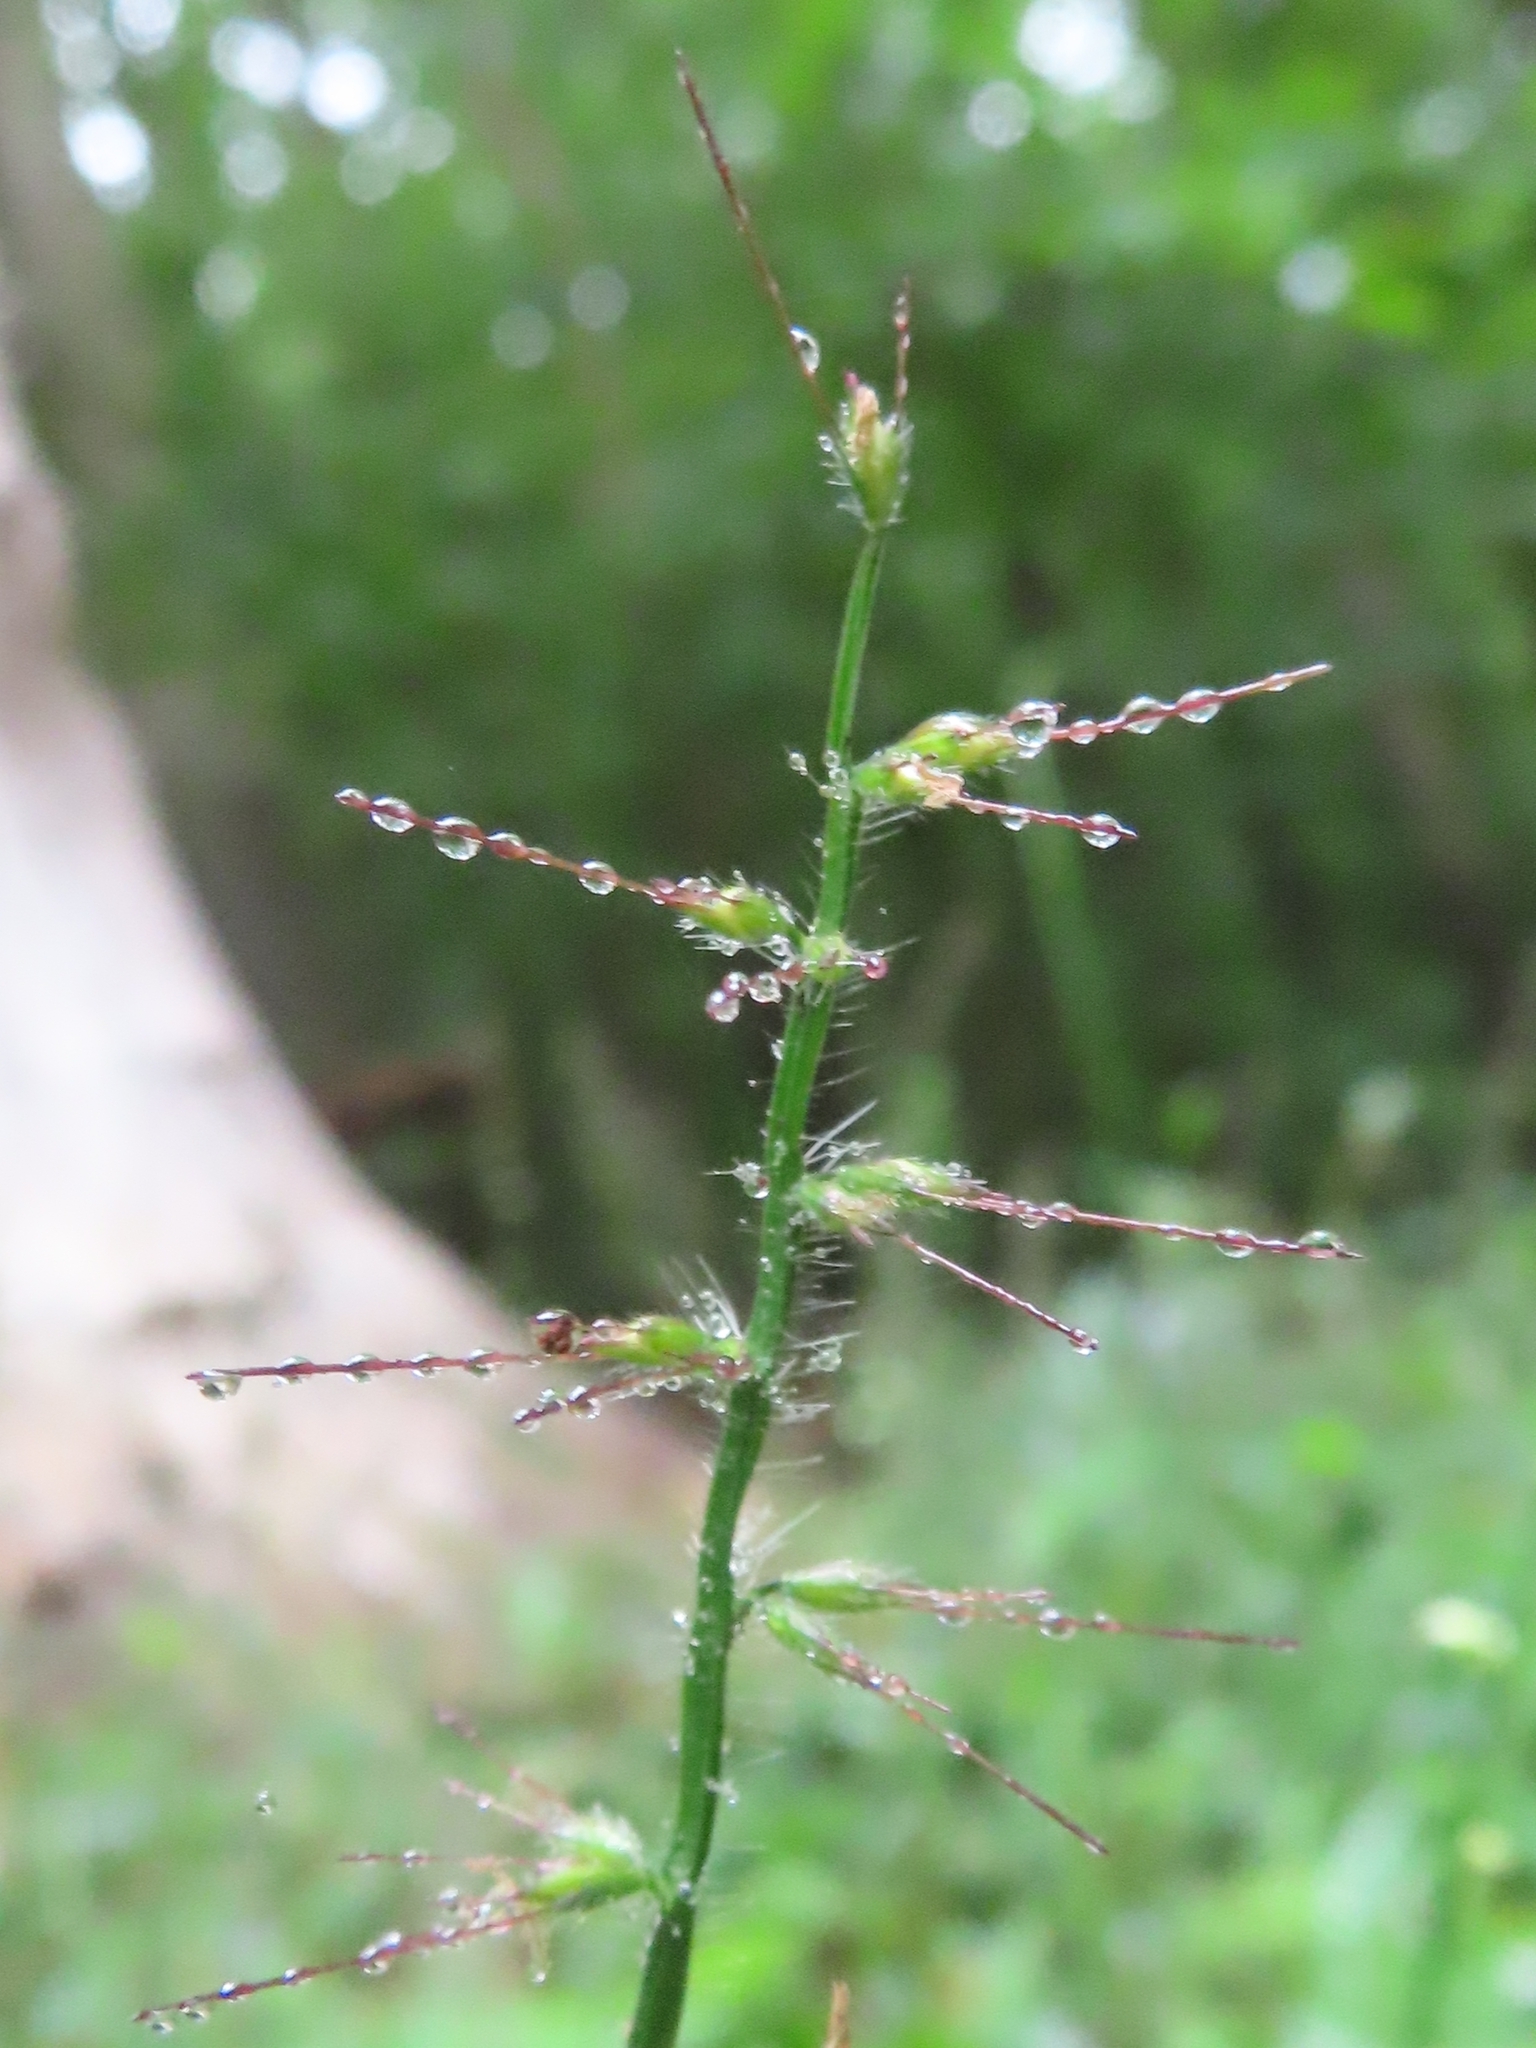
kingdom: Plantae
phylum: Tracheophyta
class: Liliopsida
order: Poales
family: Poaceae
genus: Oplismenus
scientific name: Oplismenus undulatifolius
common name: Wavyleaf basketgrass
